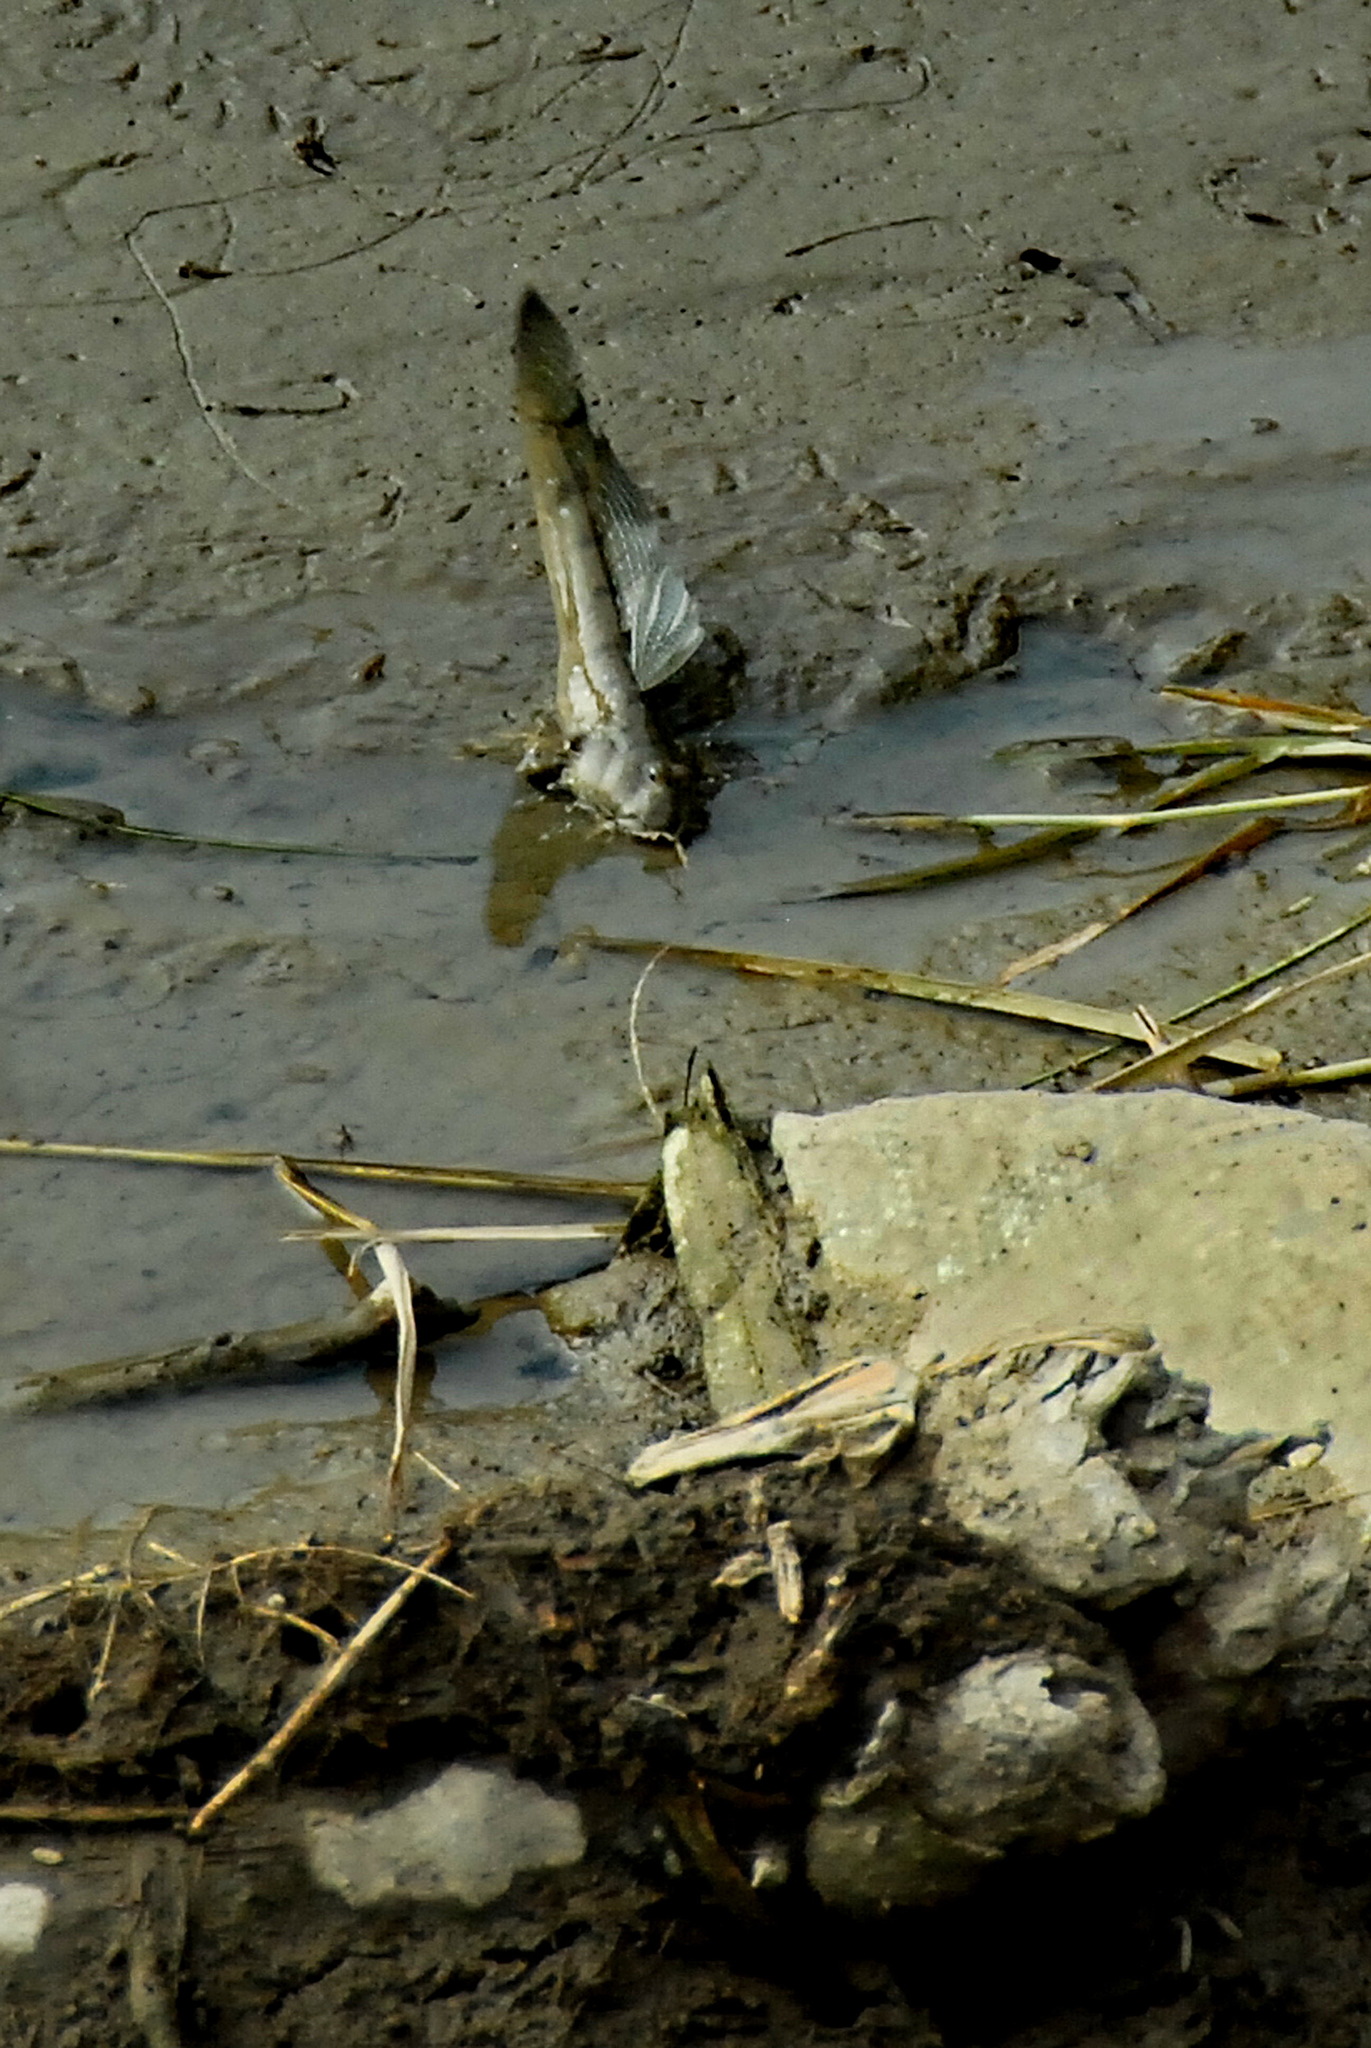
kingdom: Animalia
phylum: Chordata
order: Perciformes
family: Gobiidae
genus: Boleophthalmus
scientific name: Boleophthalmus pectinirostris
